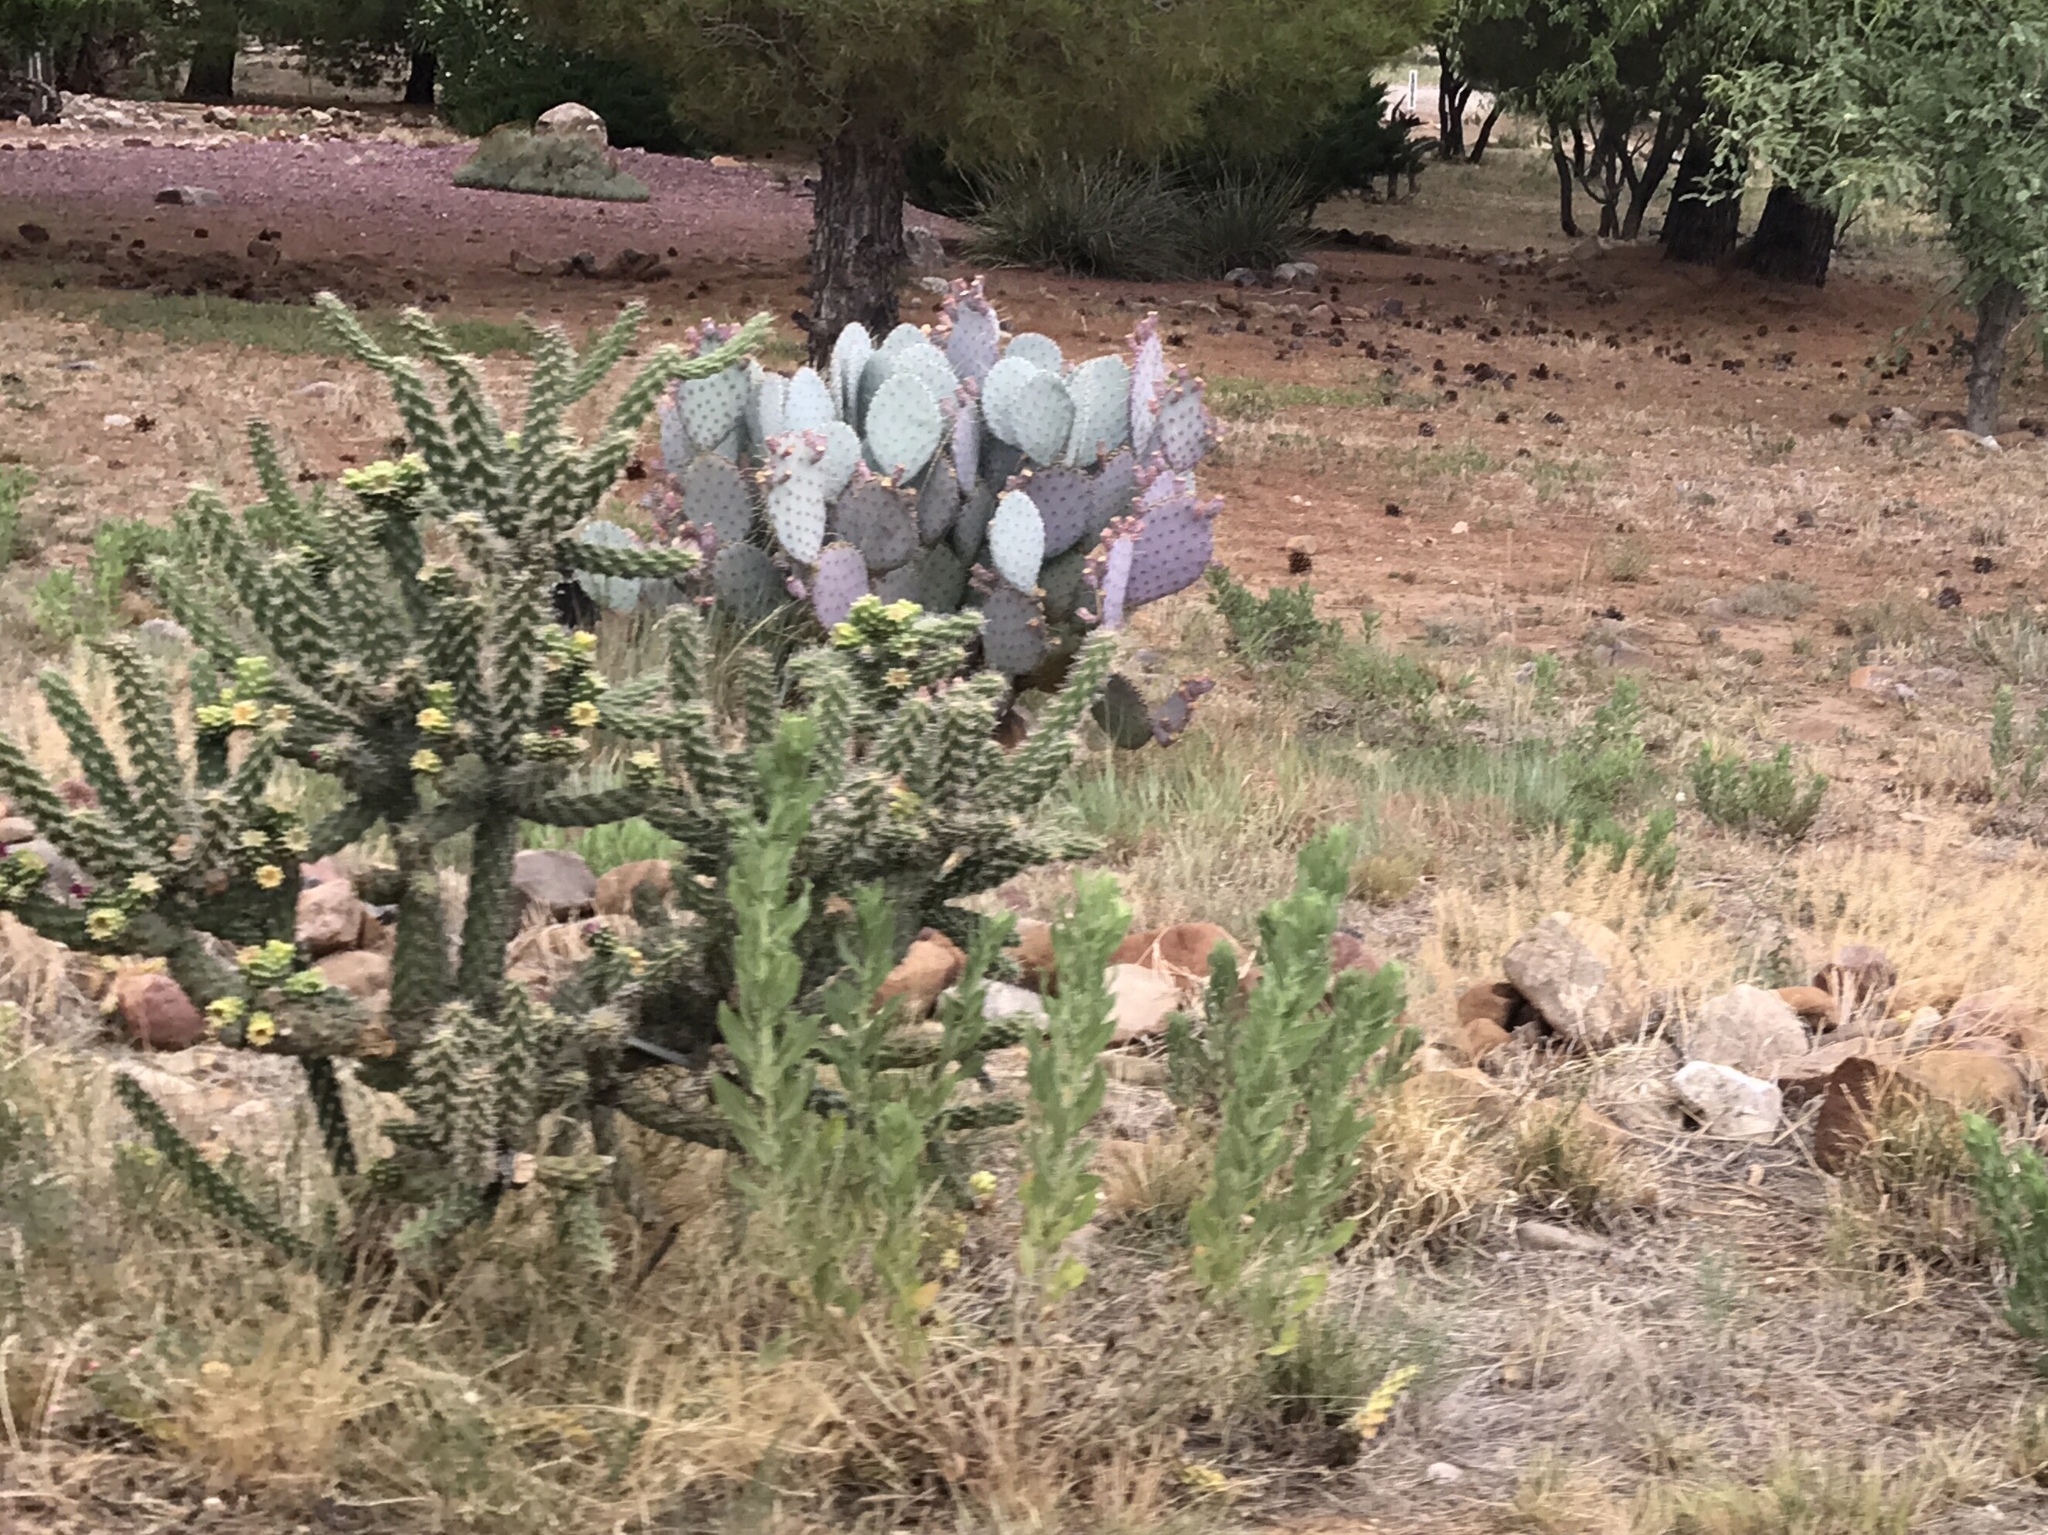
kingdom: Plantae
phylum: Tracheophyta
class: Magnoliopsida
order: Caryophyllales
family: Cactaceae
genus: Cylindropuntia
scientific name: Cylindropuntia imbricata
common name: Candelabrum cactus
